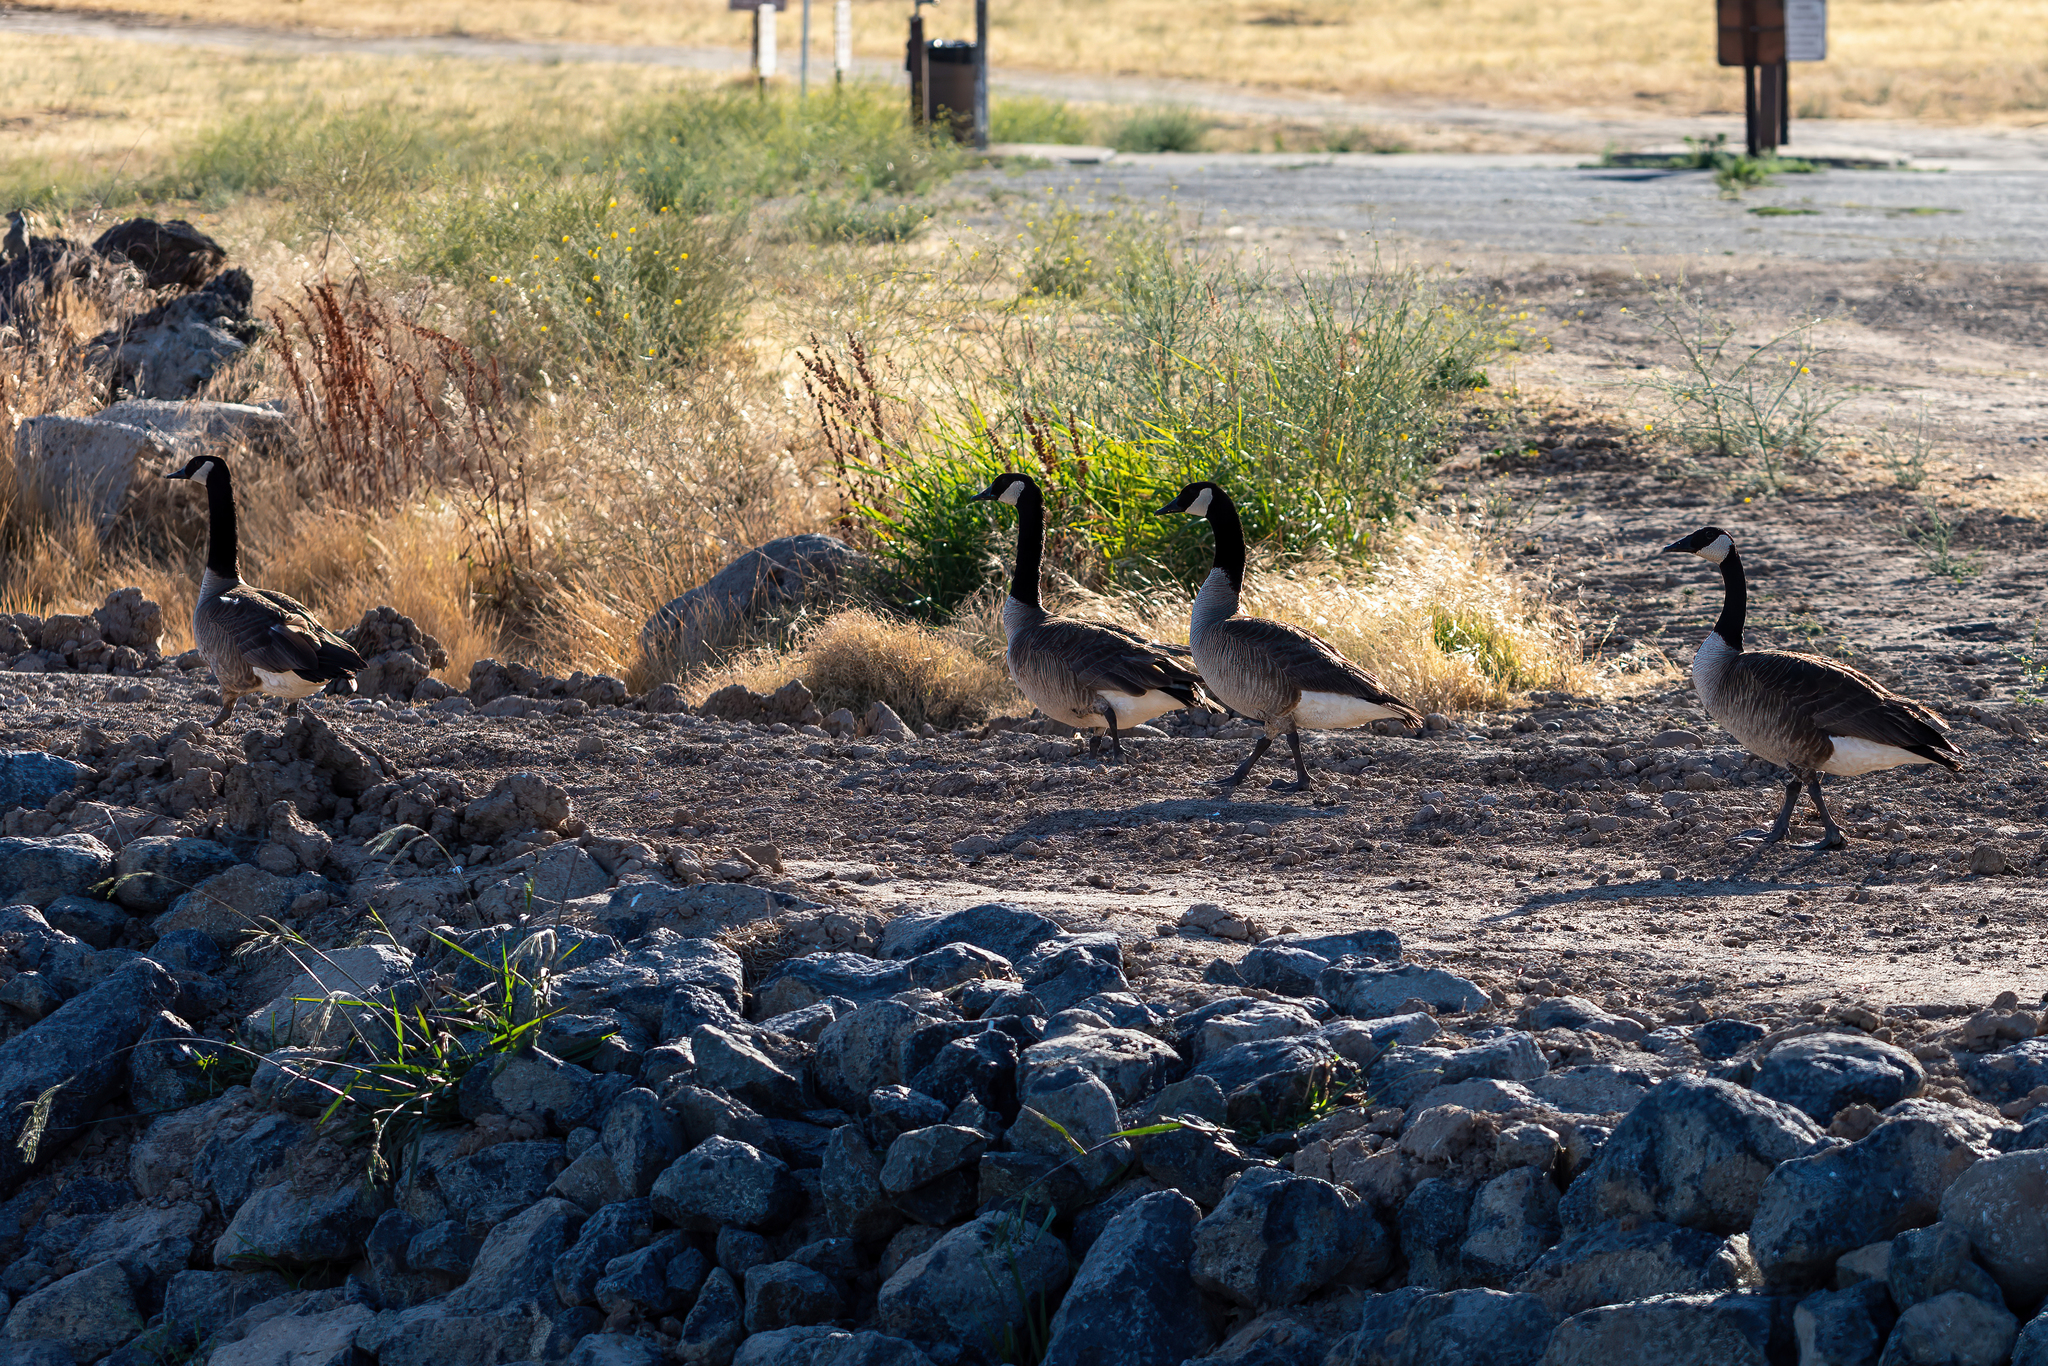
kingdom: Animalia
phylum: Chordata
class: Aves
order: Anseriformes
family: Anatidae
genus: Branta
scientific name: Branta canadensis
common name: Canada goose
